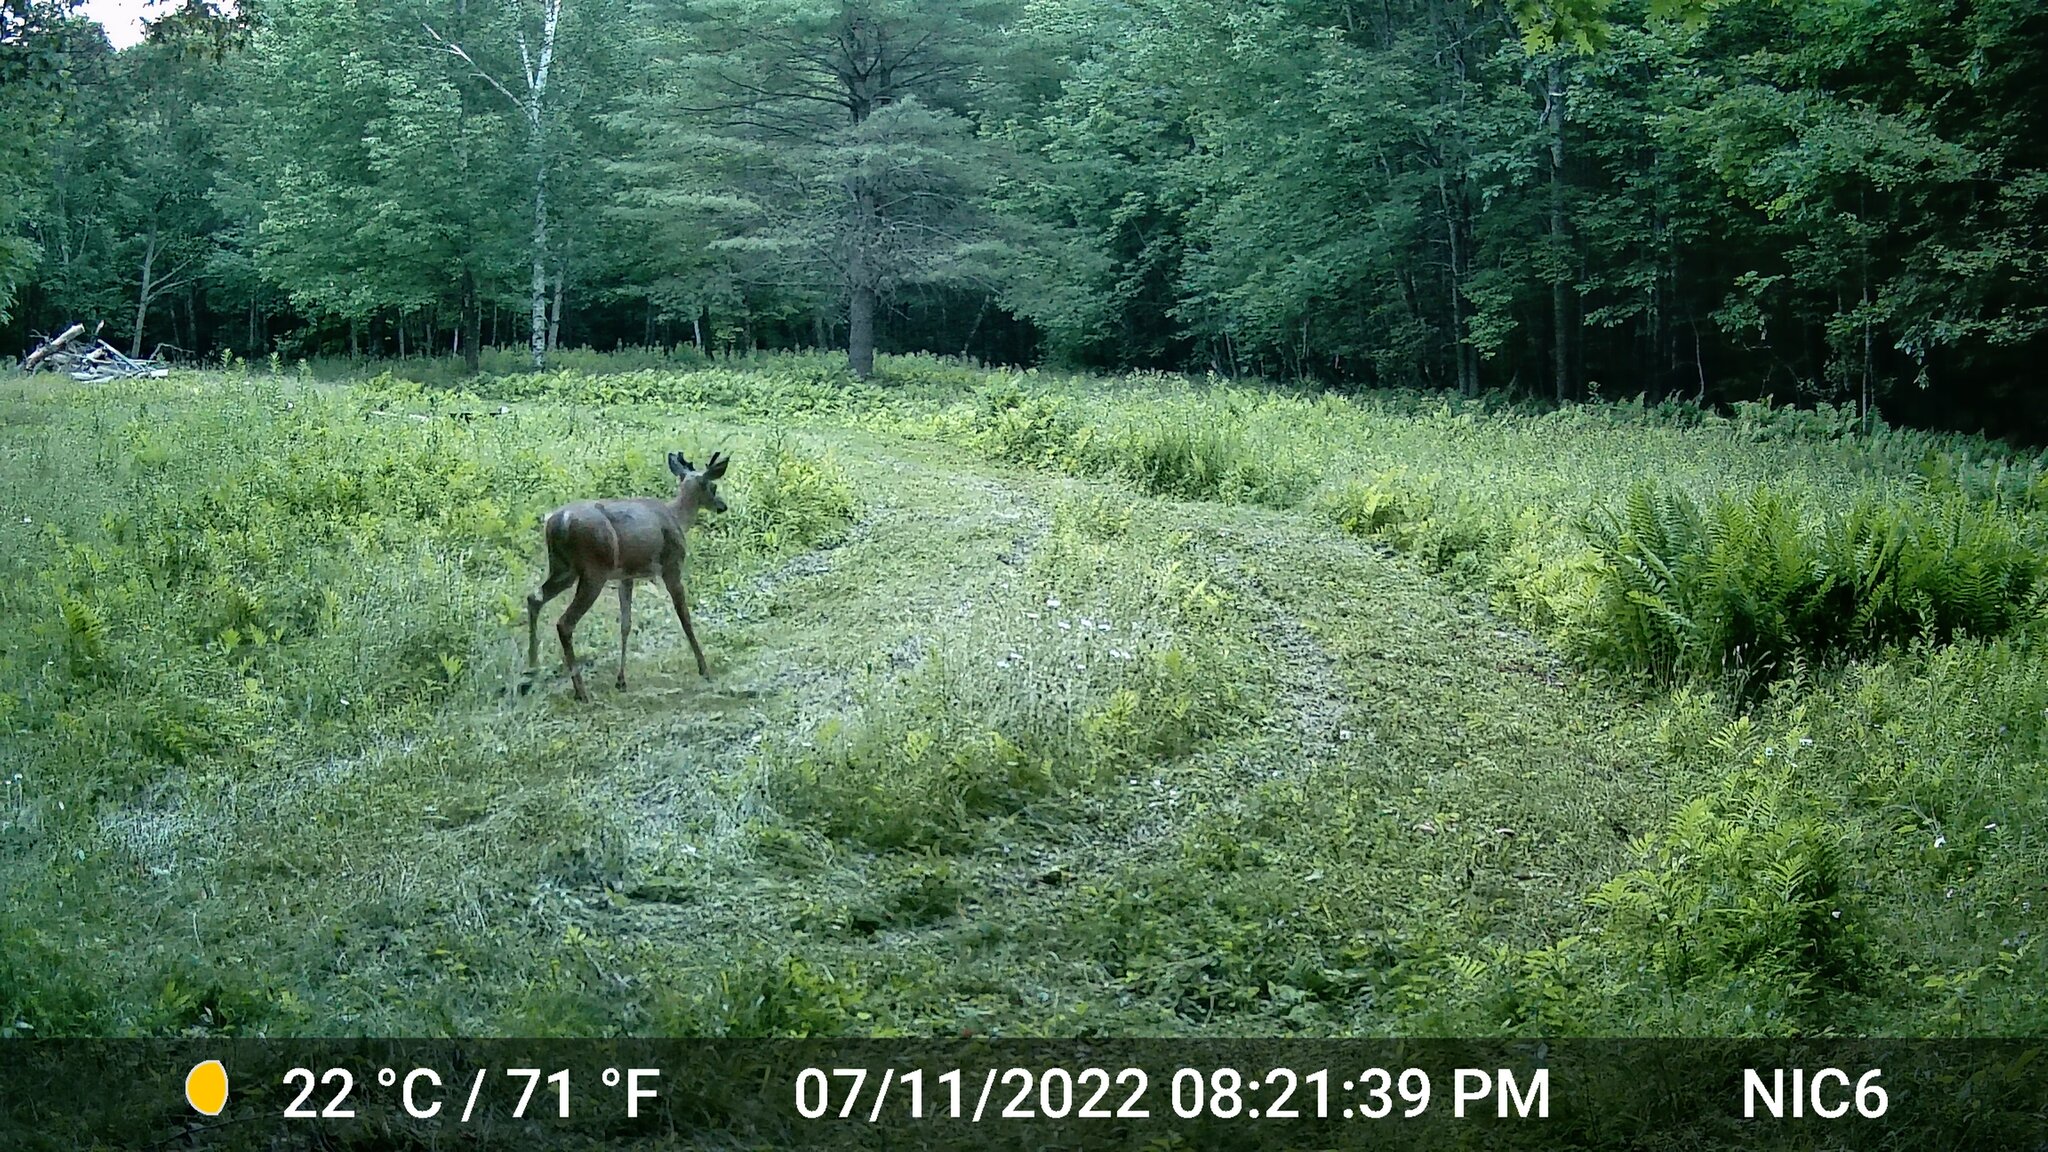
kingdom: Animalia
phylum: Chordata
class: Mammalia
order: Artiodactyla
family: Cervidae
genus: Odocoileus
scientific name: Odocoileus virginianus
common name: White-tailed deer
